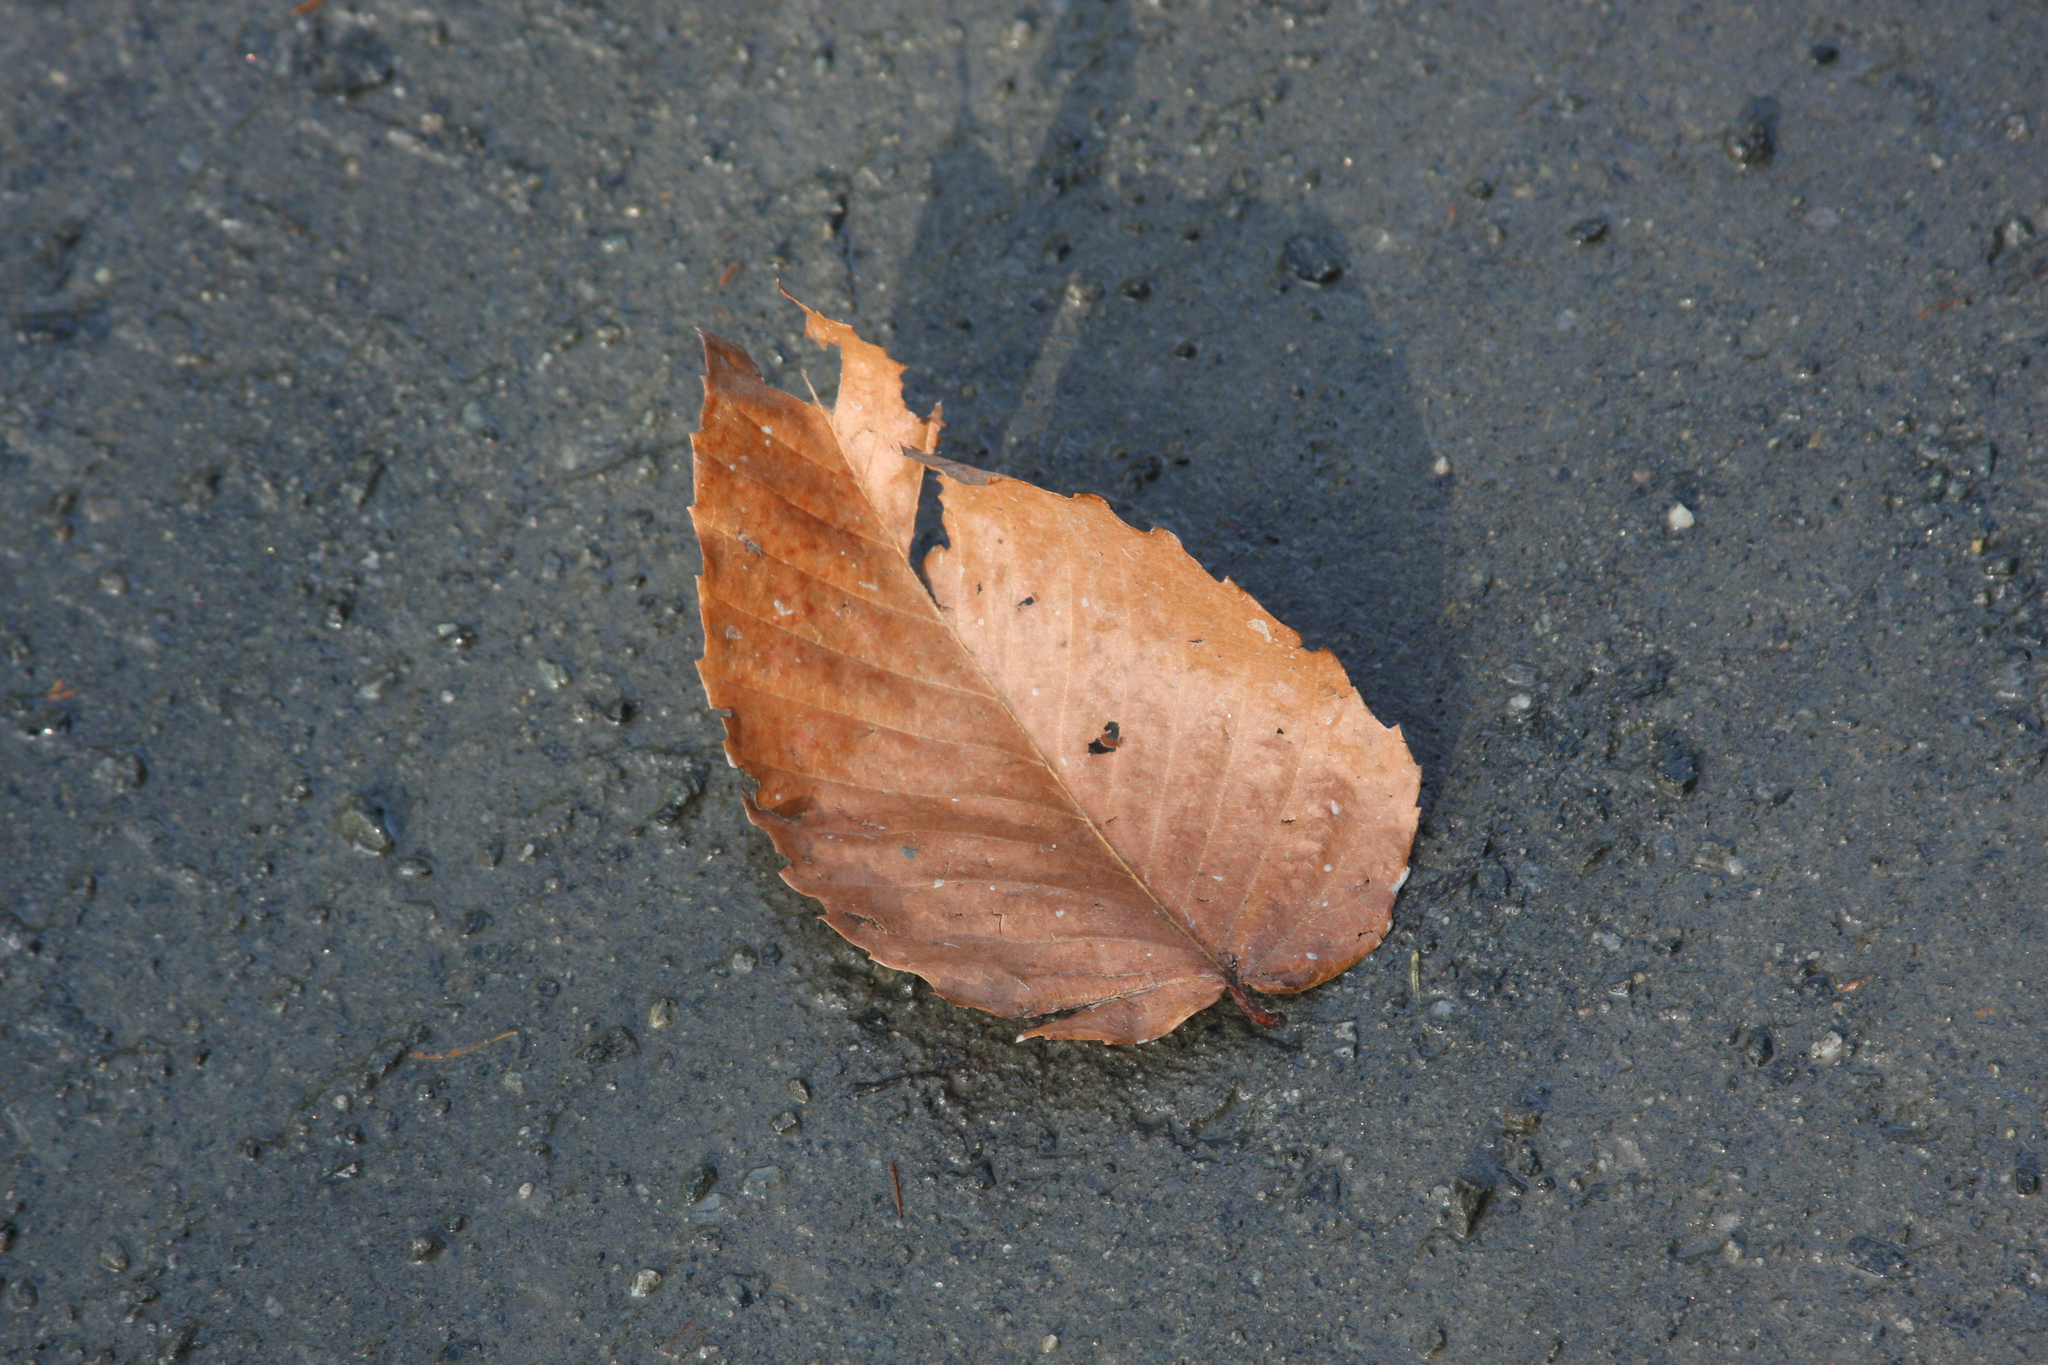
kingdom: Plantae
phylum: Tracheophyta
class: Magnoliopsida
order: Fagales
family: Fagaceae
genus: Fagus
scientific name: Fagus grandifolia
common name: American beech
